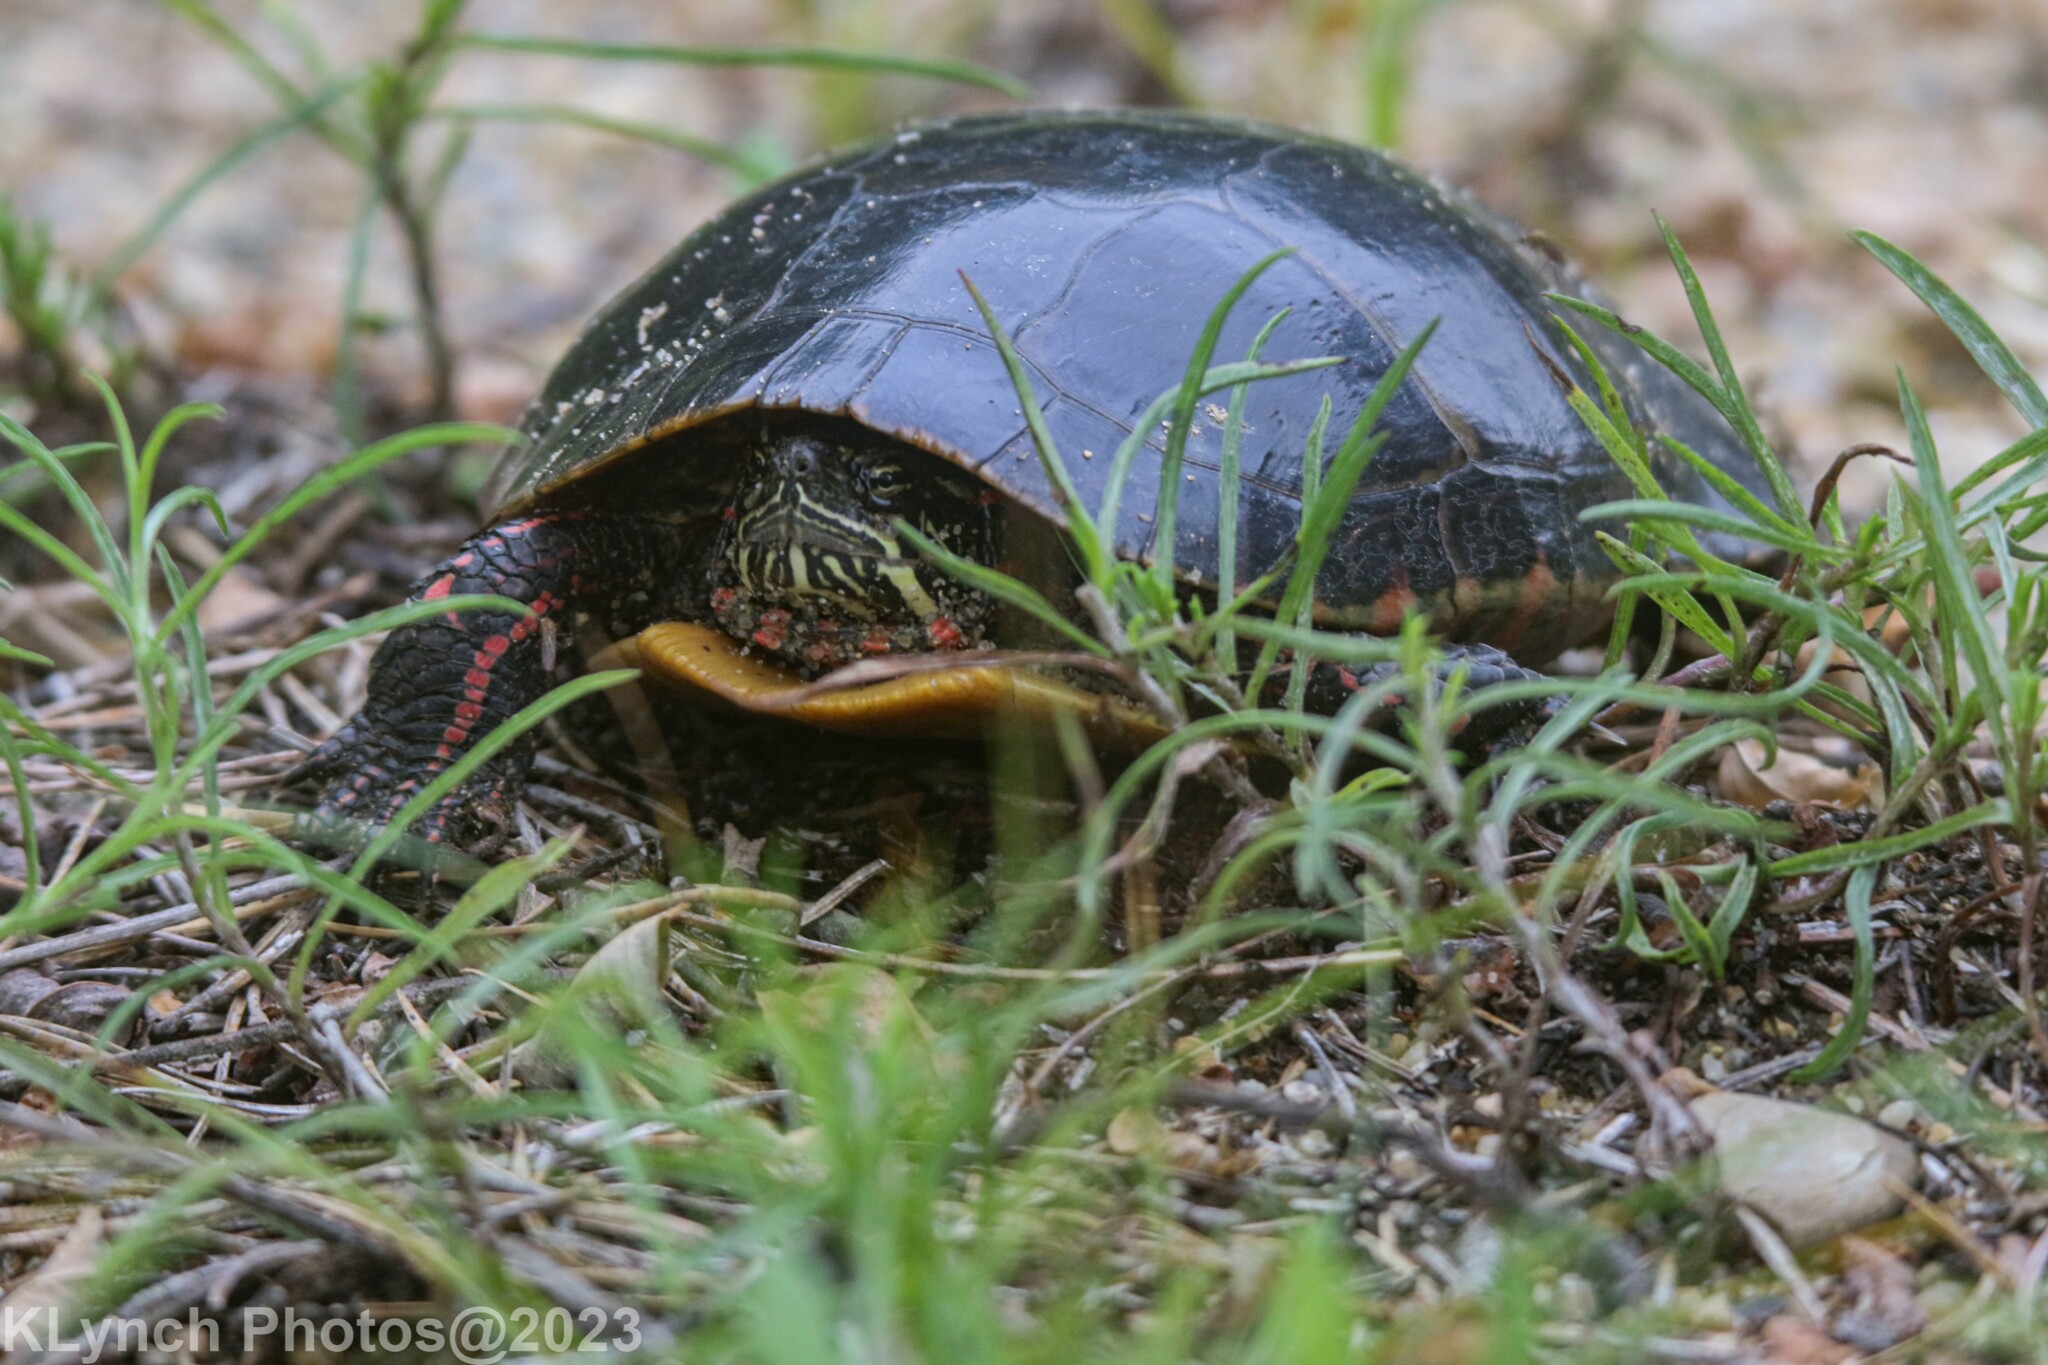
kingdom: Animalia
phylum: Chordata
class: Testudines
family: Emydidae
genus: Chrysemys
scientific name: Chrysemys picta
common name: Painted turtle
